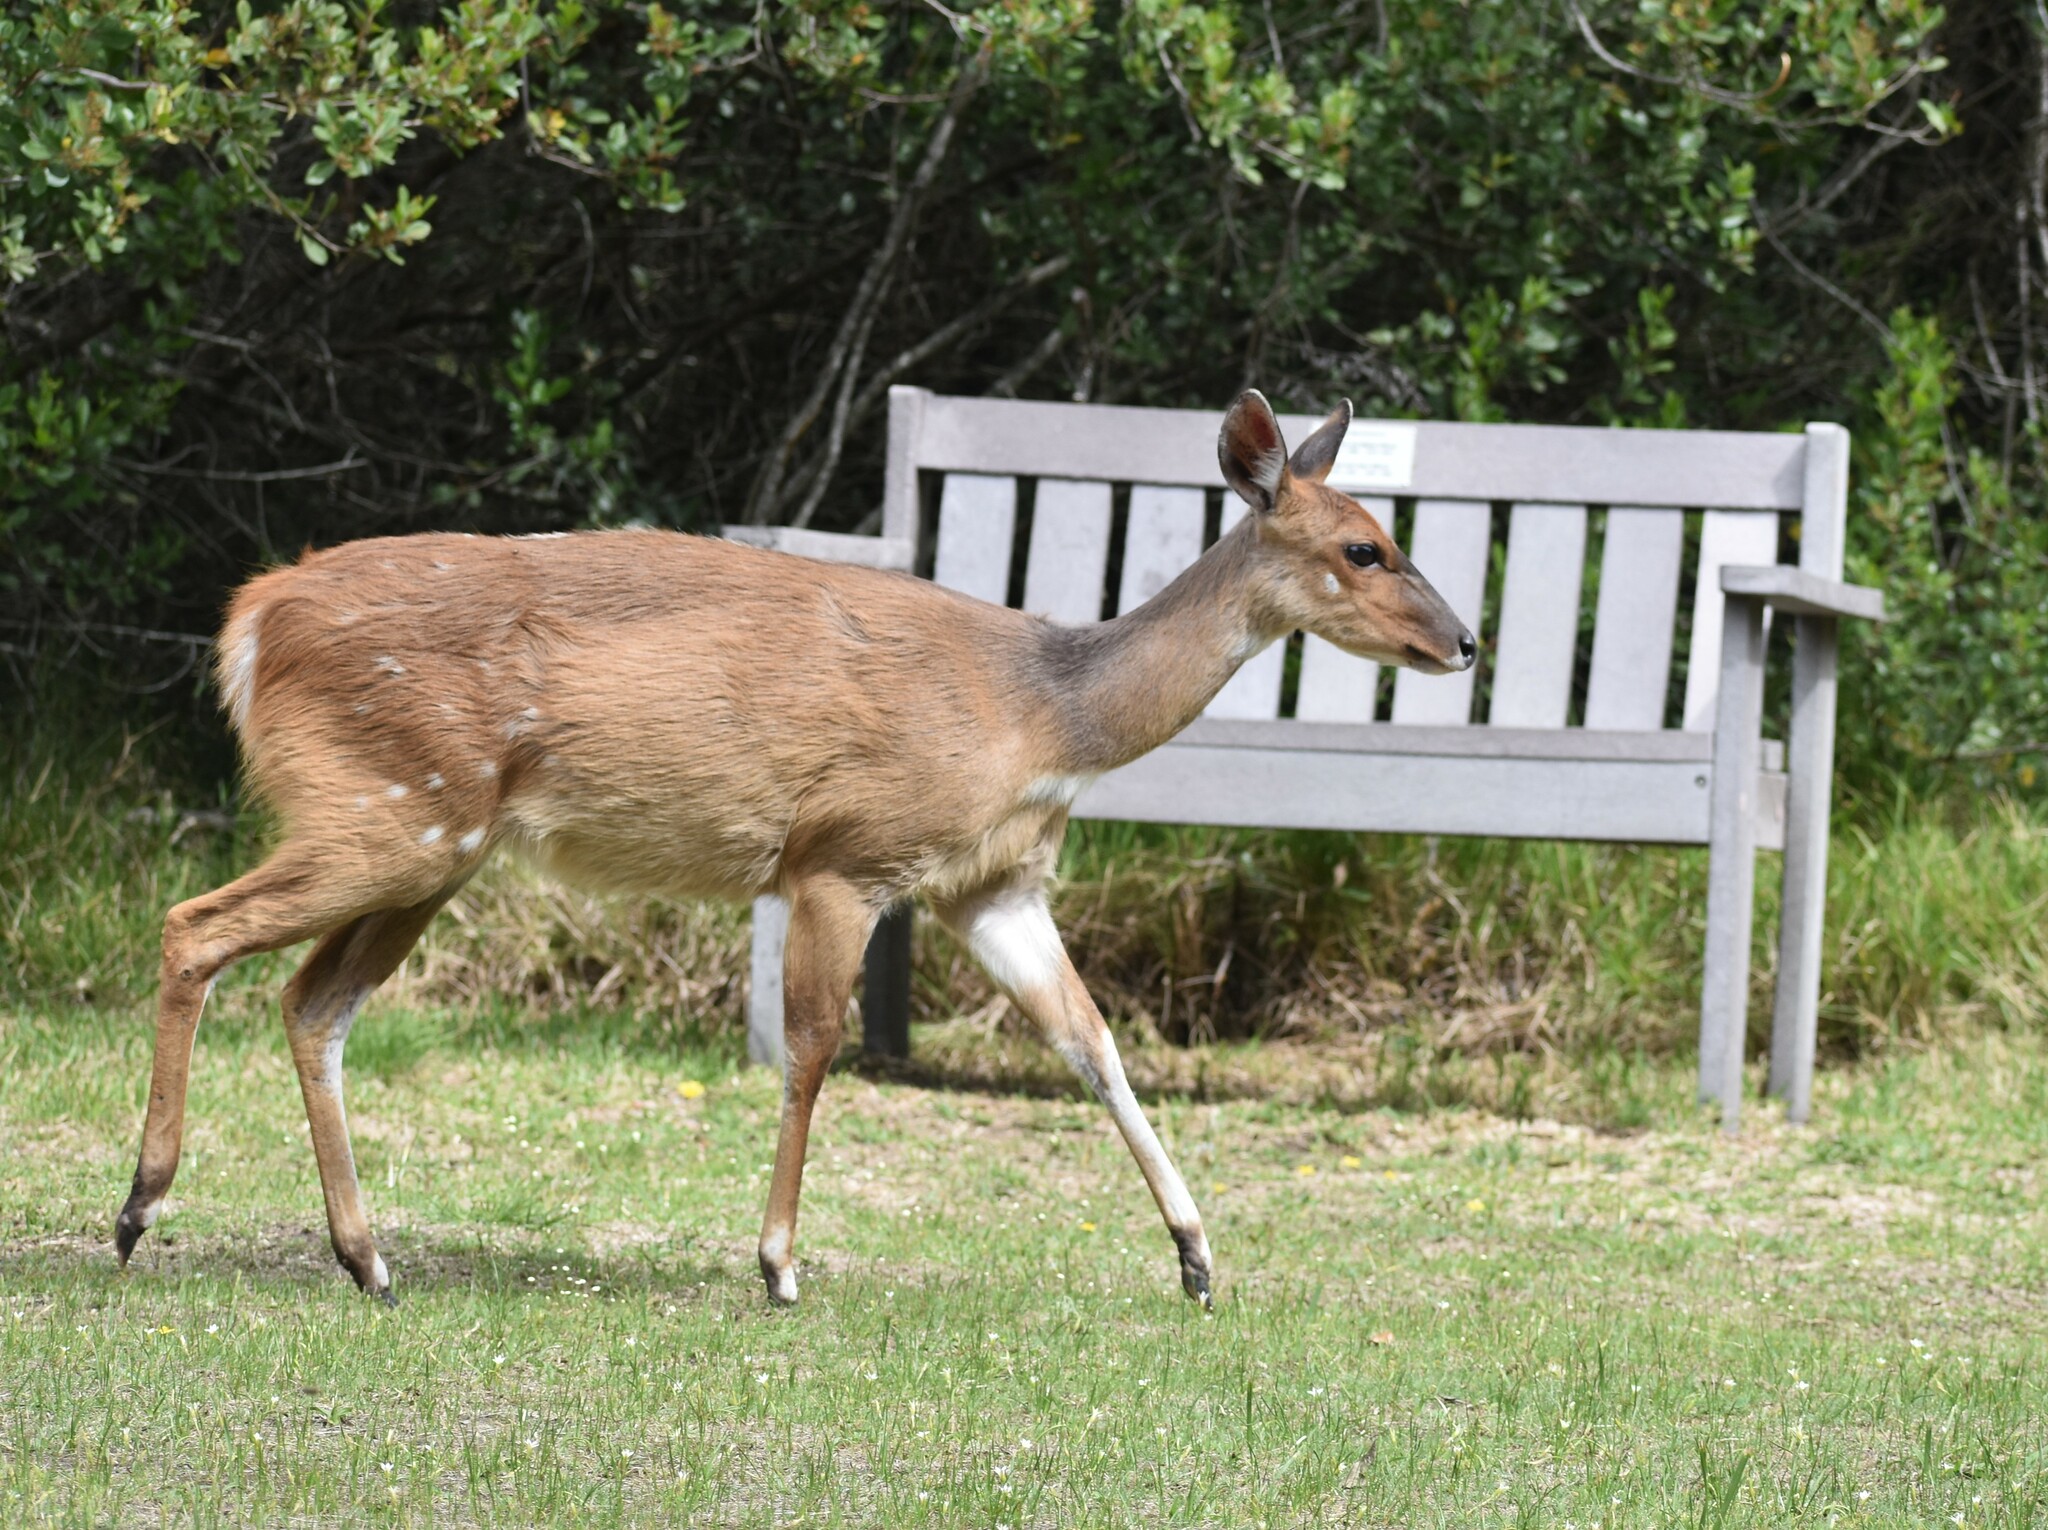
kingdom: Animalia
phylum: Chordata
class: Mammalia
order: Artiodactyla
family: Bovidae
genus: Tragelaphus
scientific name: Tragelaphus scriptus
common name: Bushbuck
